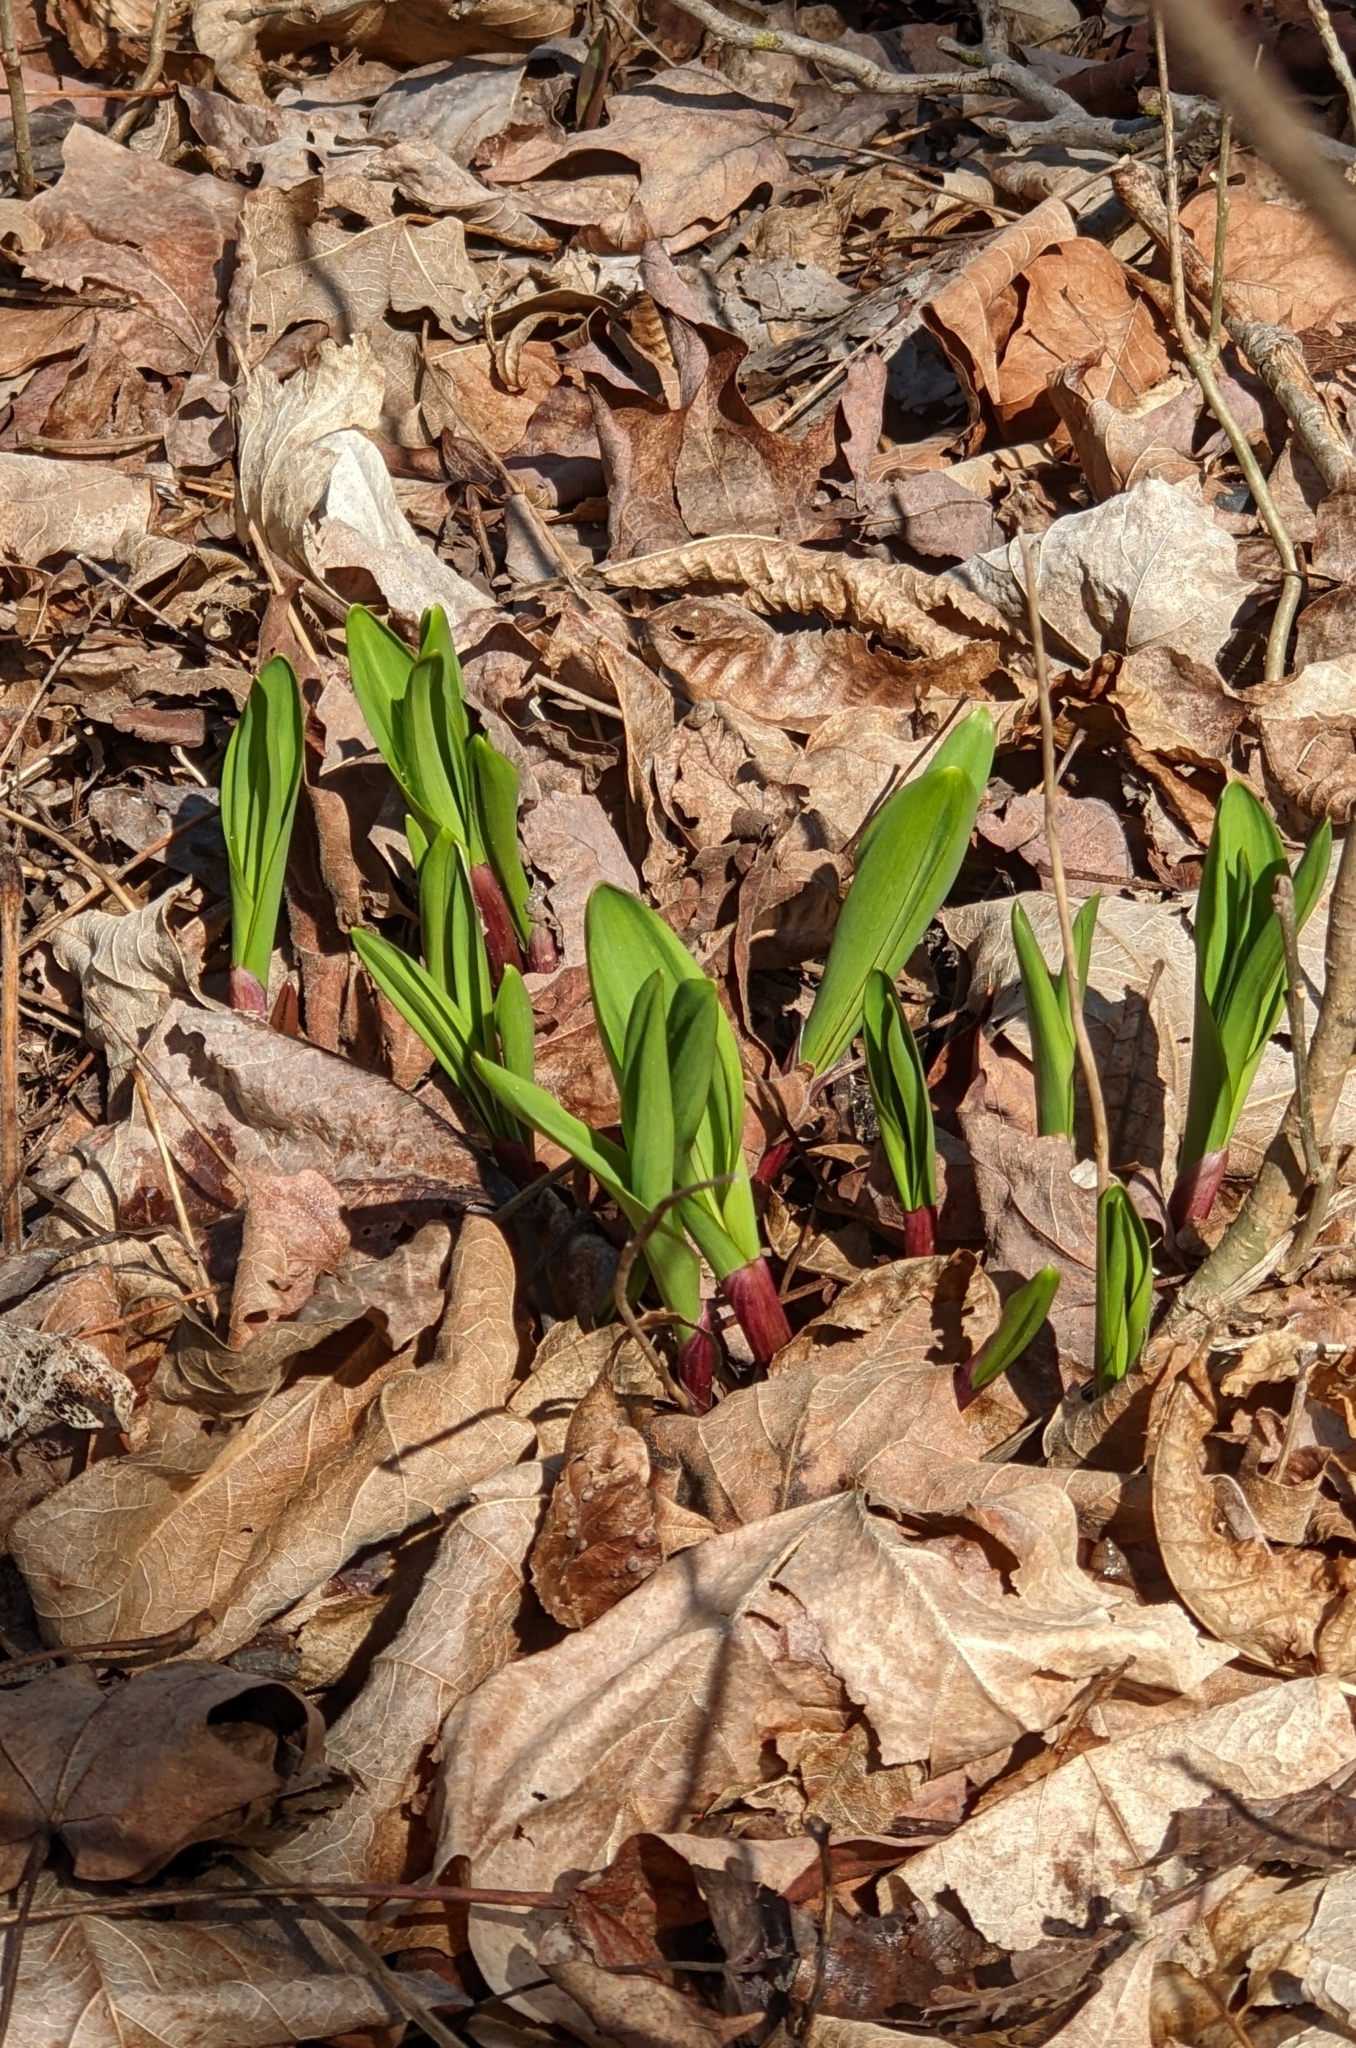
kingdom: Plantae
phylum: Tracheophyta
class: Liliopsida
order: Asparagales
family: Amaryllidaceae
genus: Allium
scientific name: Allium tricoccum
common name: Ramp
